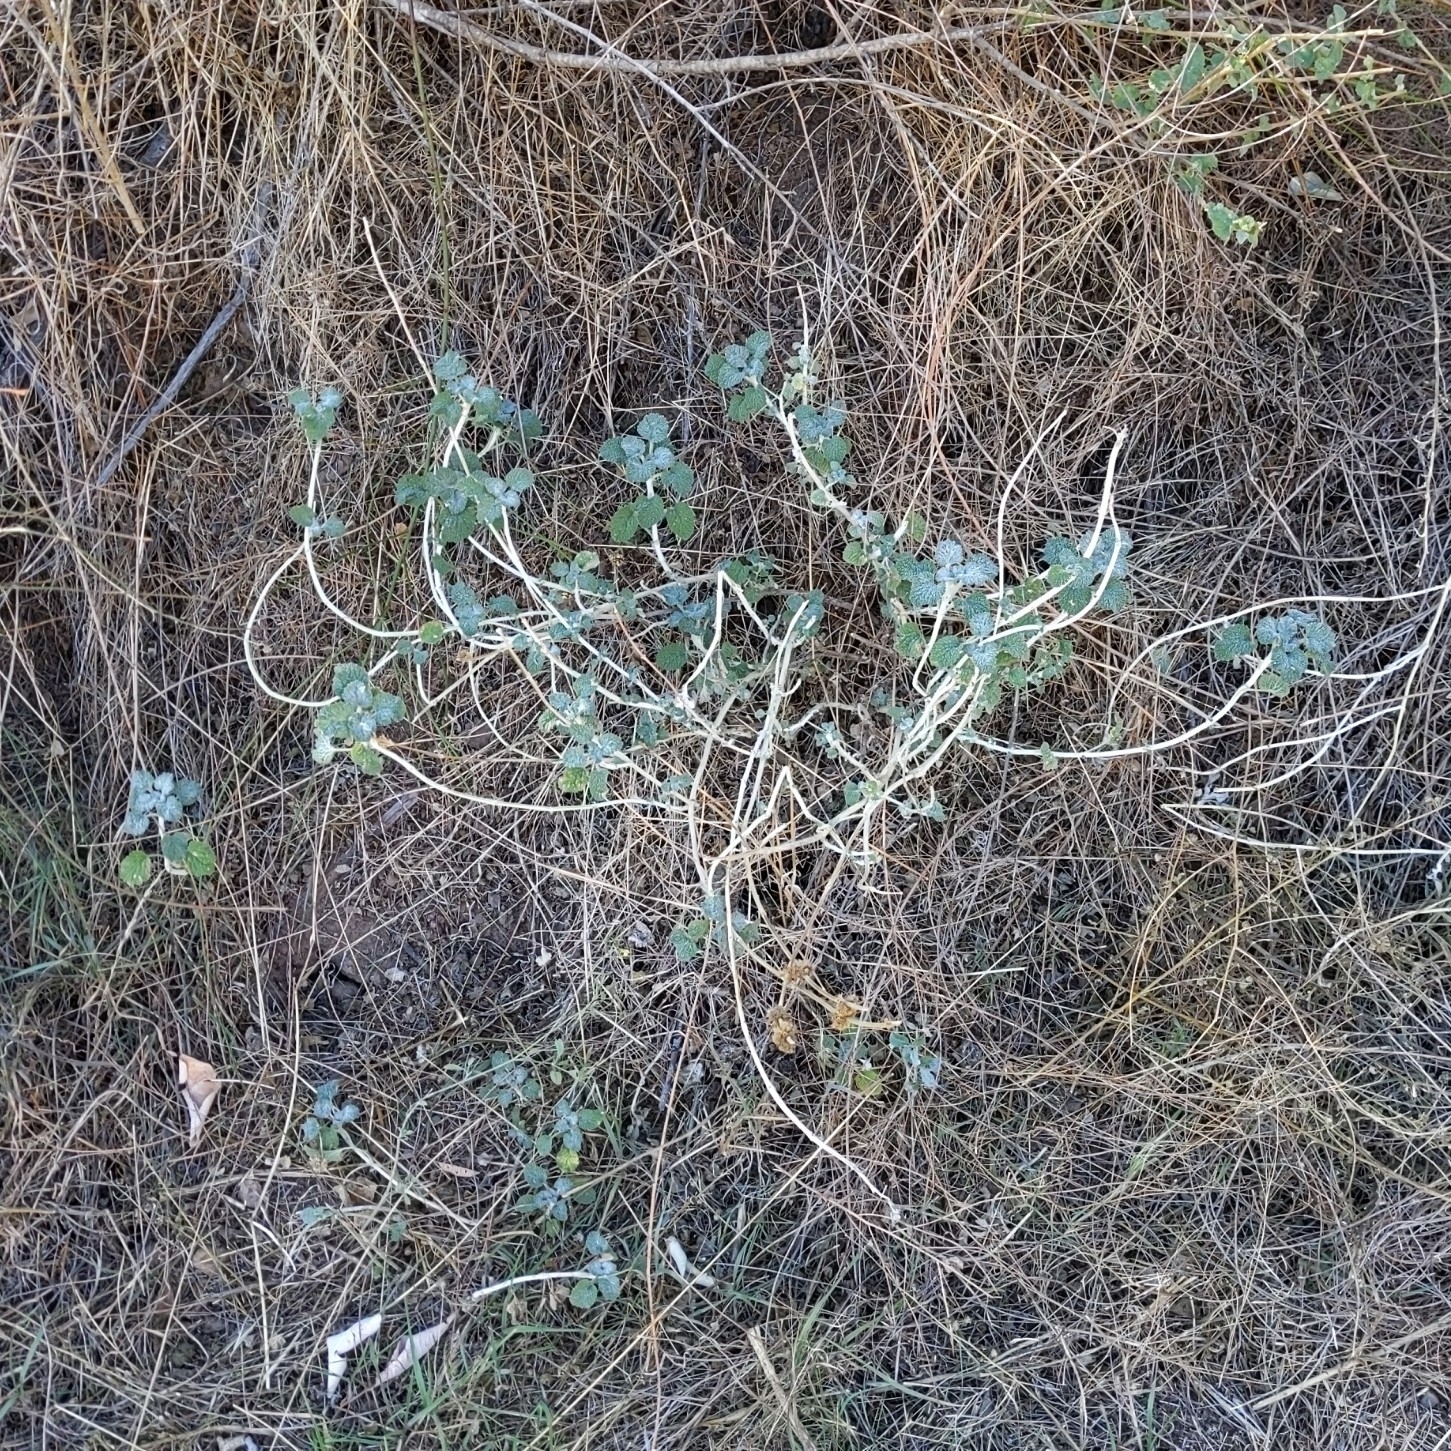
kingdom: Plantae
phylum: Tracheophyta
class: Magnoliopsida
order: Lamiales
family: Lamiaceae
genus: Marrubium
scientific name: Marrubium vulgare
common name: Horehound
